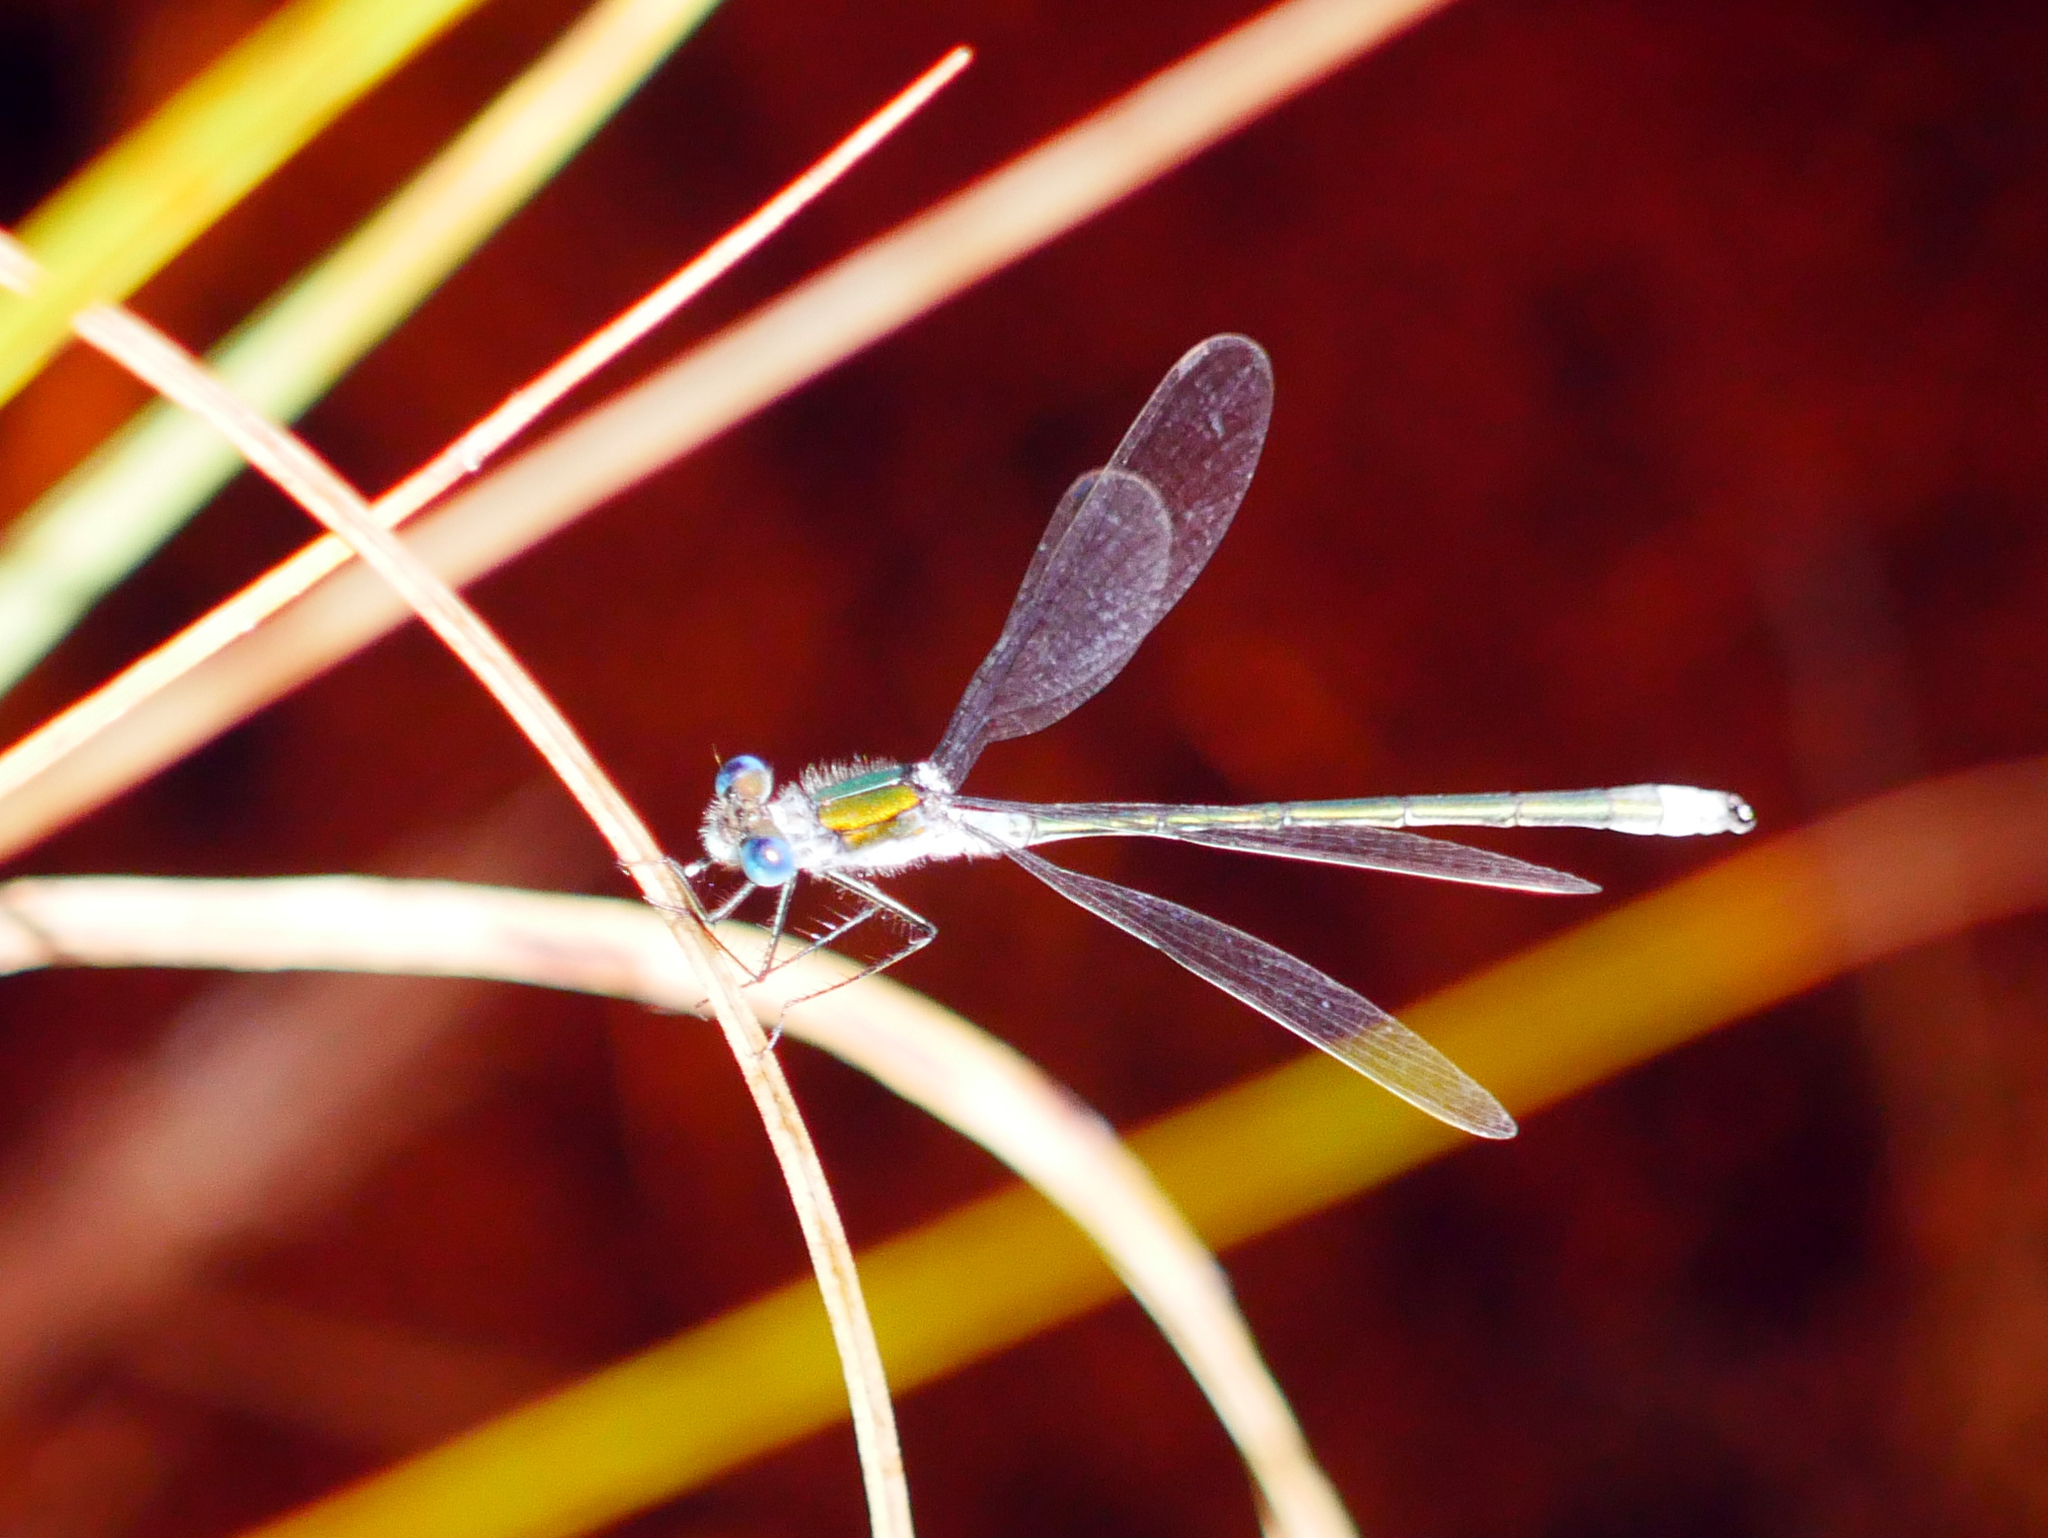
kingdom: Animalia
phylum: Arthropoda
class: Insecta
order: Odonata
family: Lestidae
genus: Lestes
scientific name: Lestes sponsa
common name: Common spreadwing
